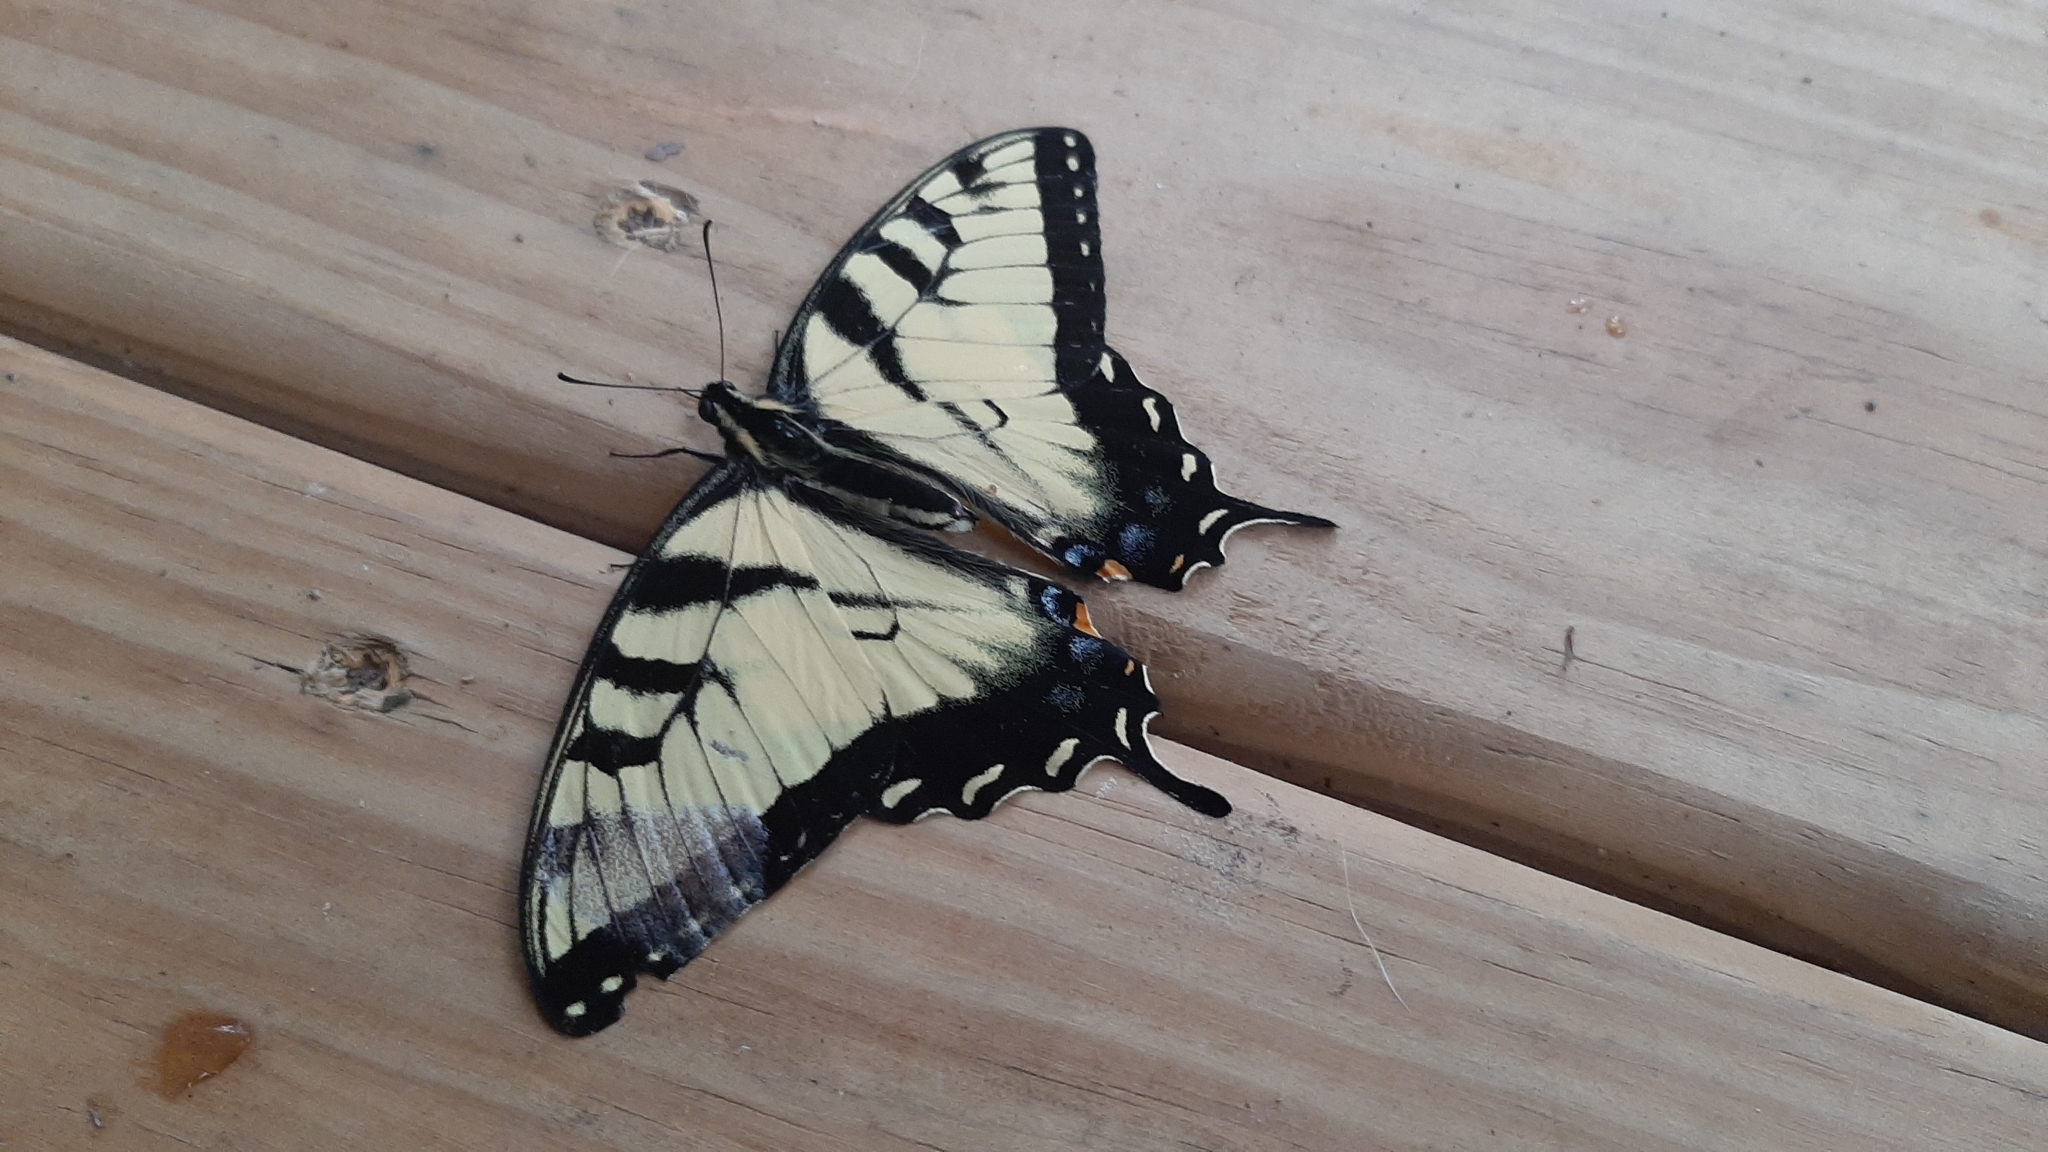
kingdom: Animalia
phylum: Arthropoda
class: Insecta
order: Lepidoptera
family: Papilionidae
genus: Papilio
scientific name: Papilio glaucus
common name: Tiger swallowtail
